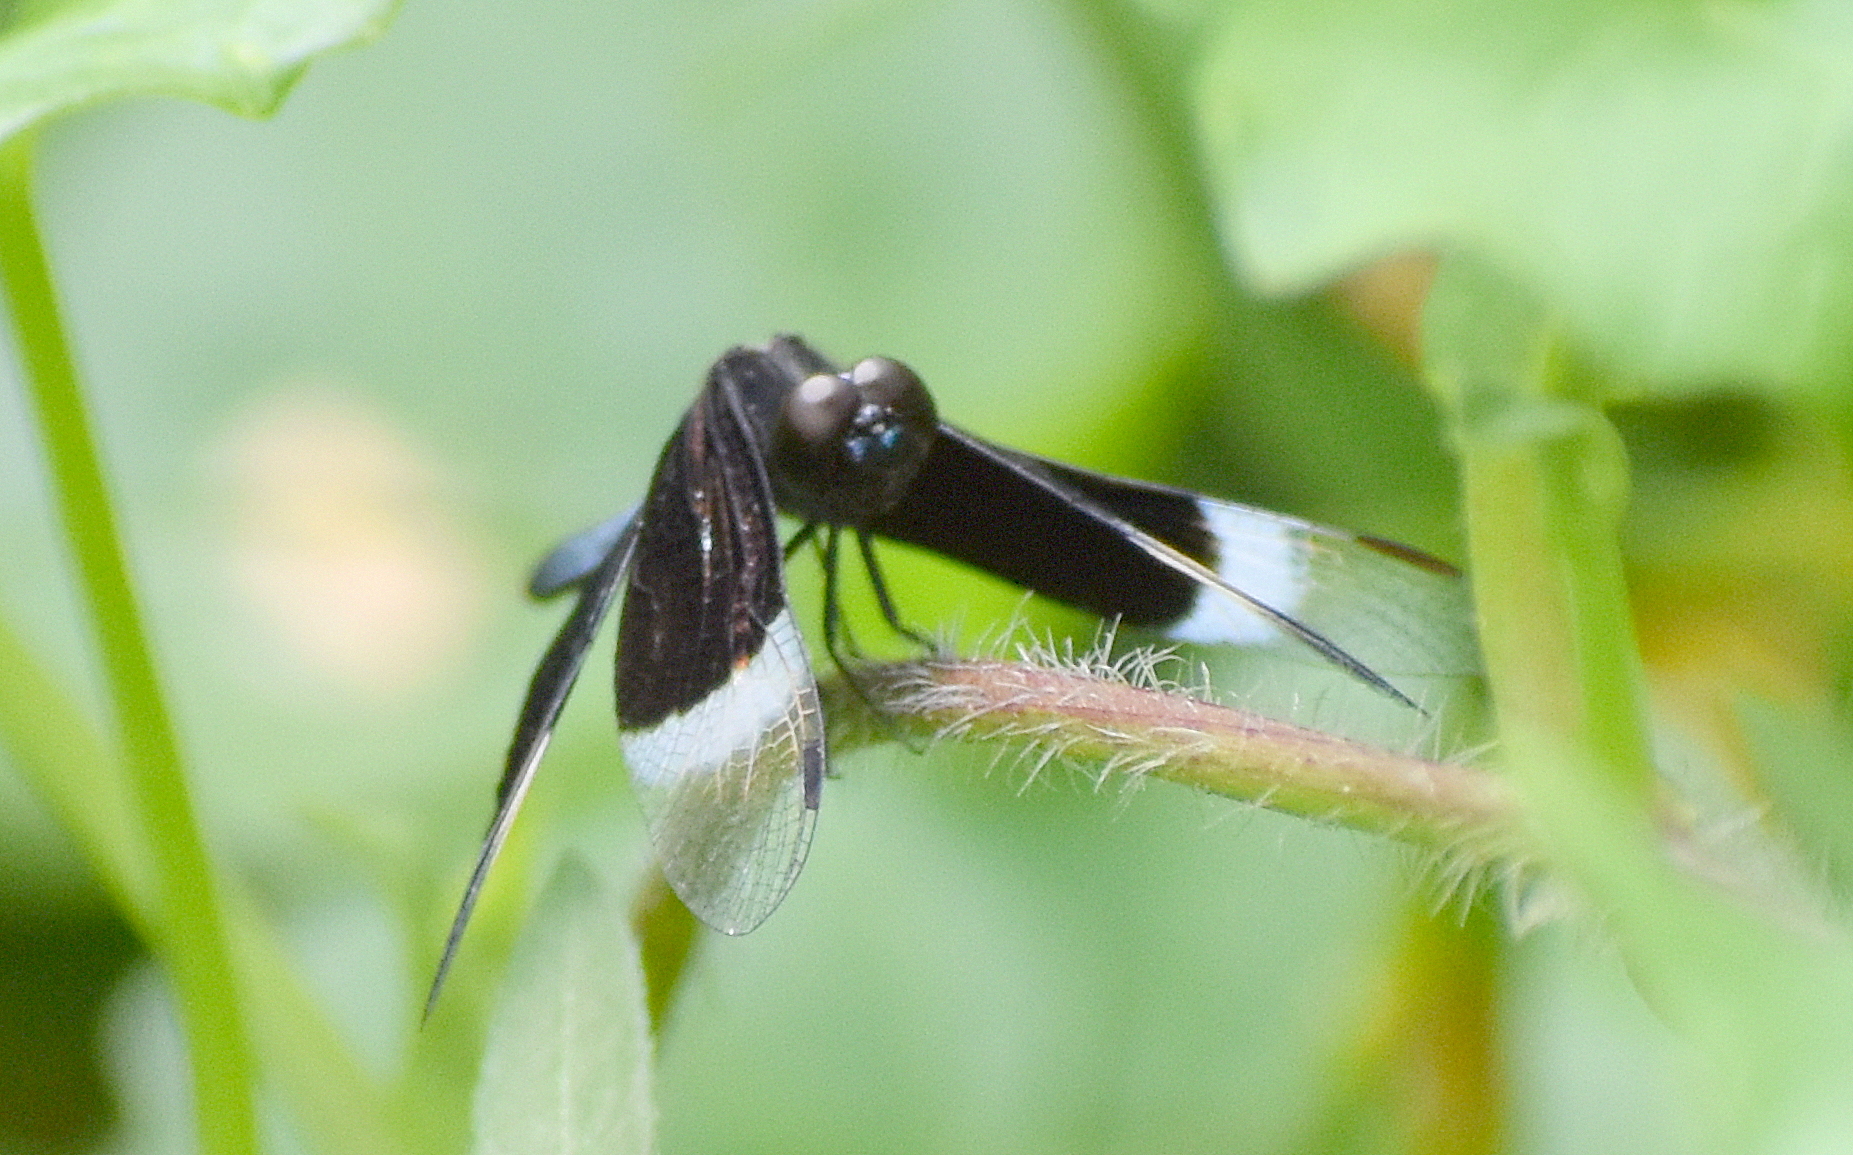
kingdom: Animalia
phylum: Arthropoda
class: Insecta
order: Odonata
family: Libellulidae
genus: Neurothemis
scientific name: Neurothemis tullia
